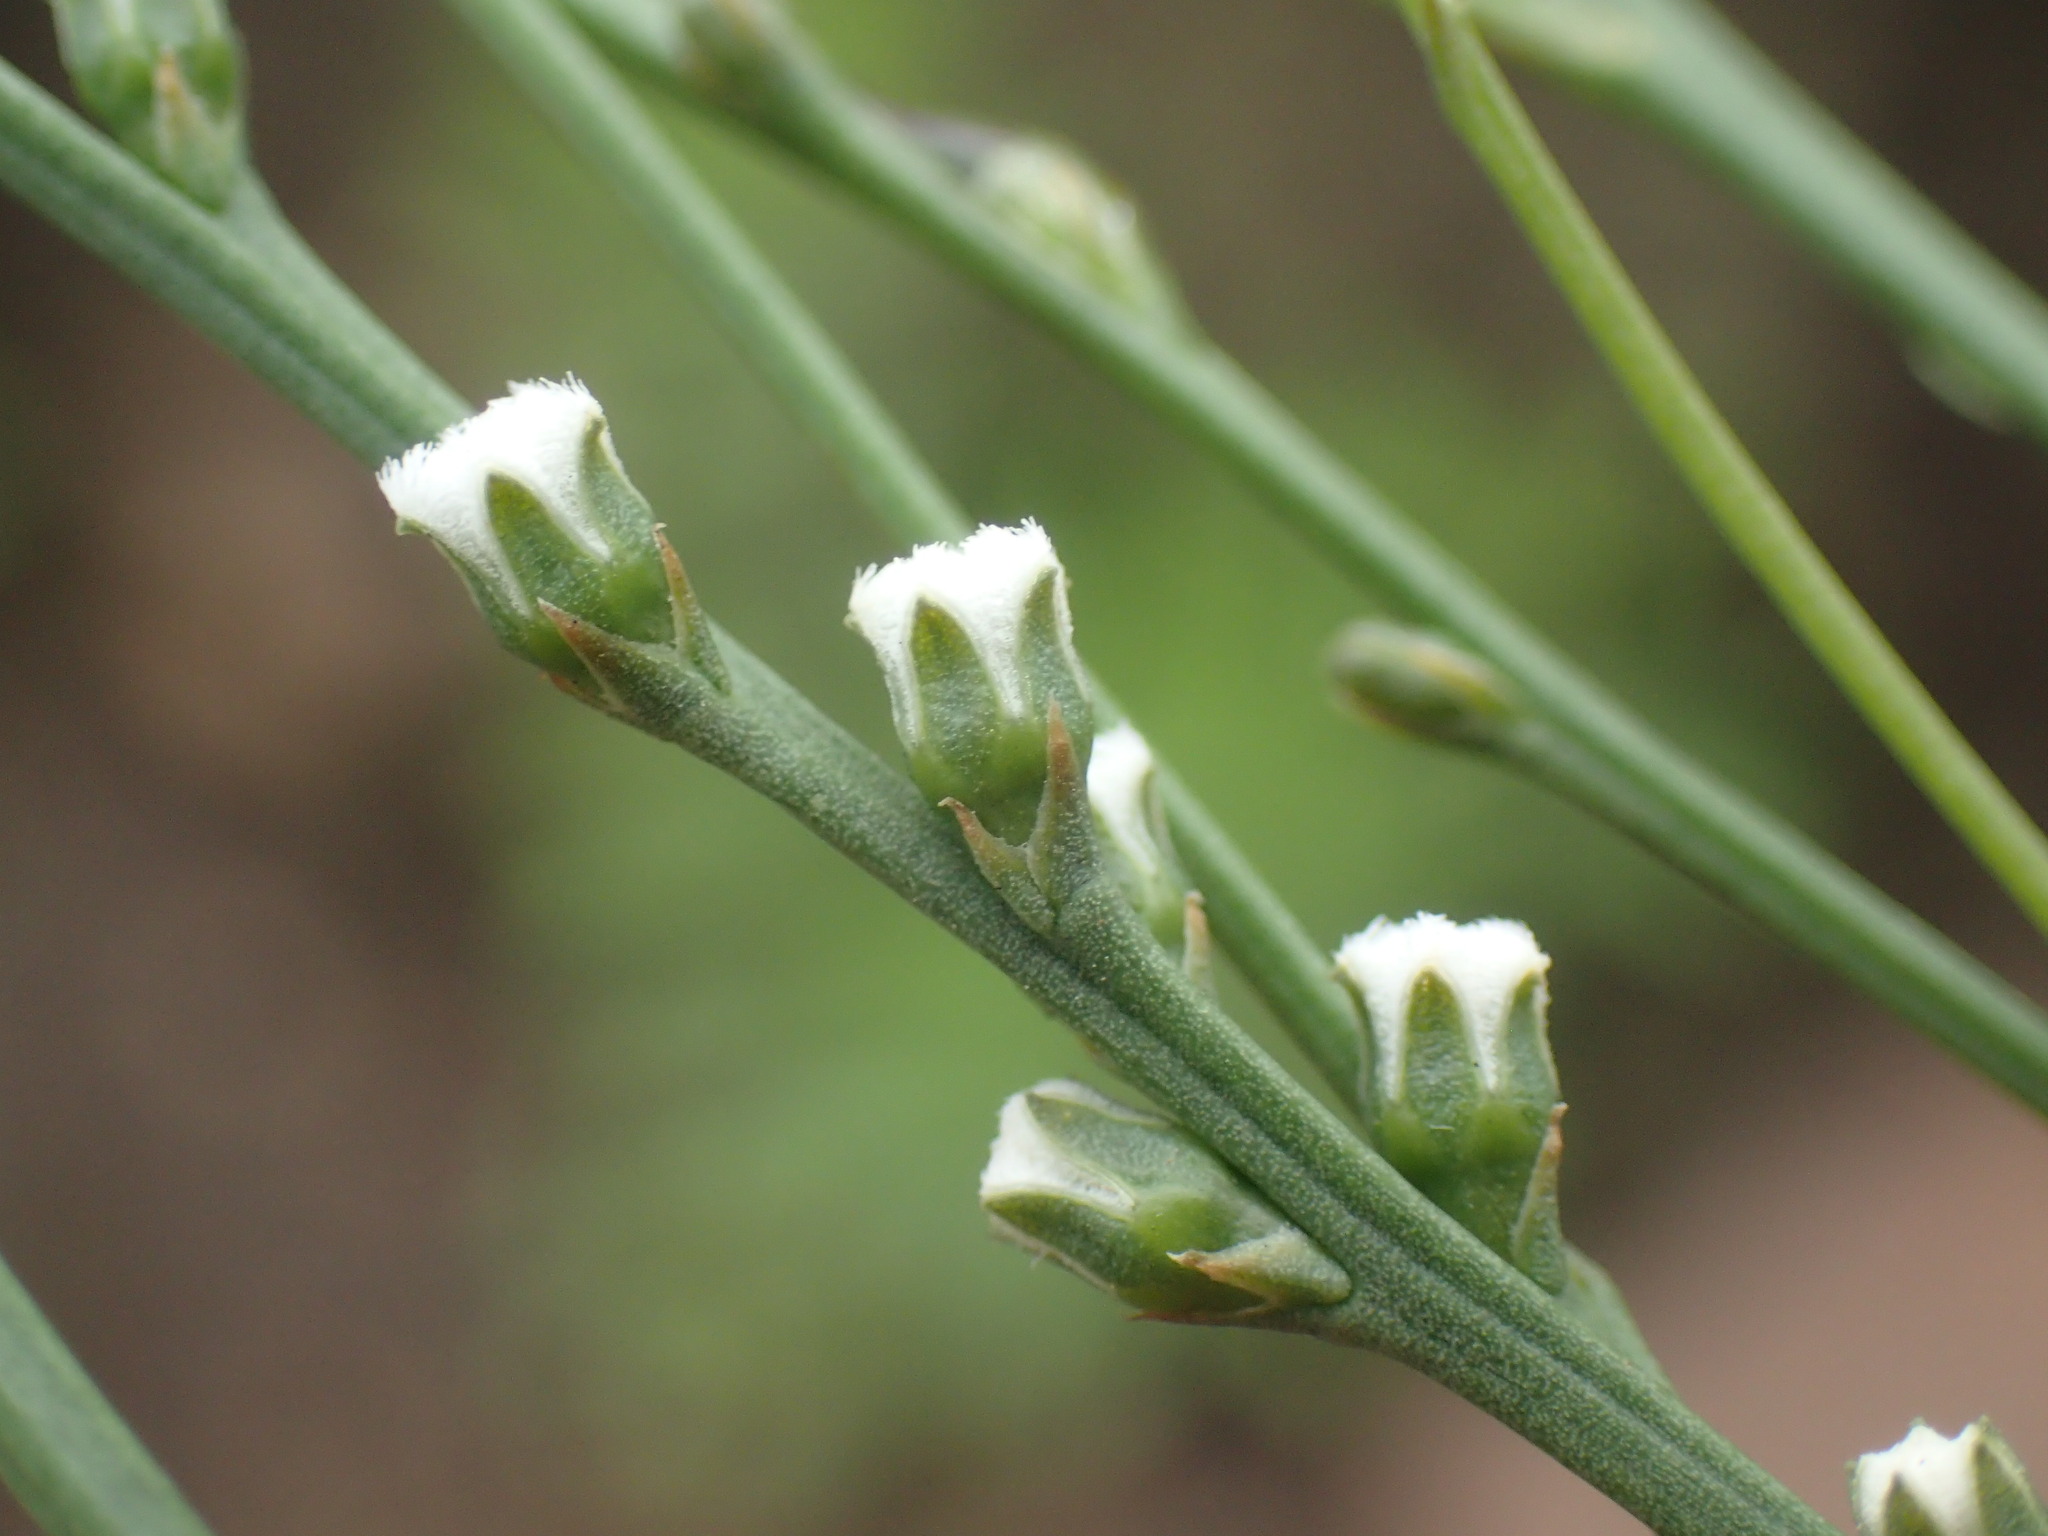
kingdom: Plantae
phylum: Tracheophyta
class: Magnoliopsida
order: Santalales
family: Thesiaceae
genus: Thesium
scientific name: Thesium natalense
